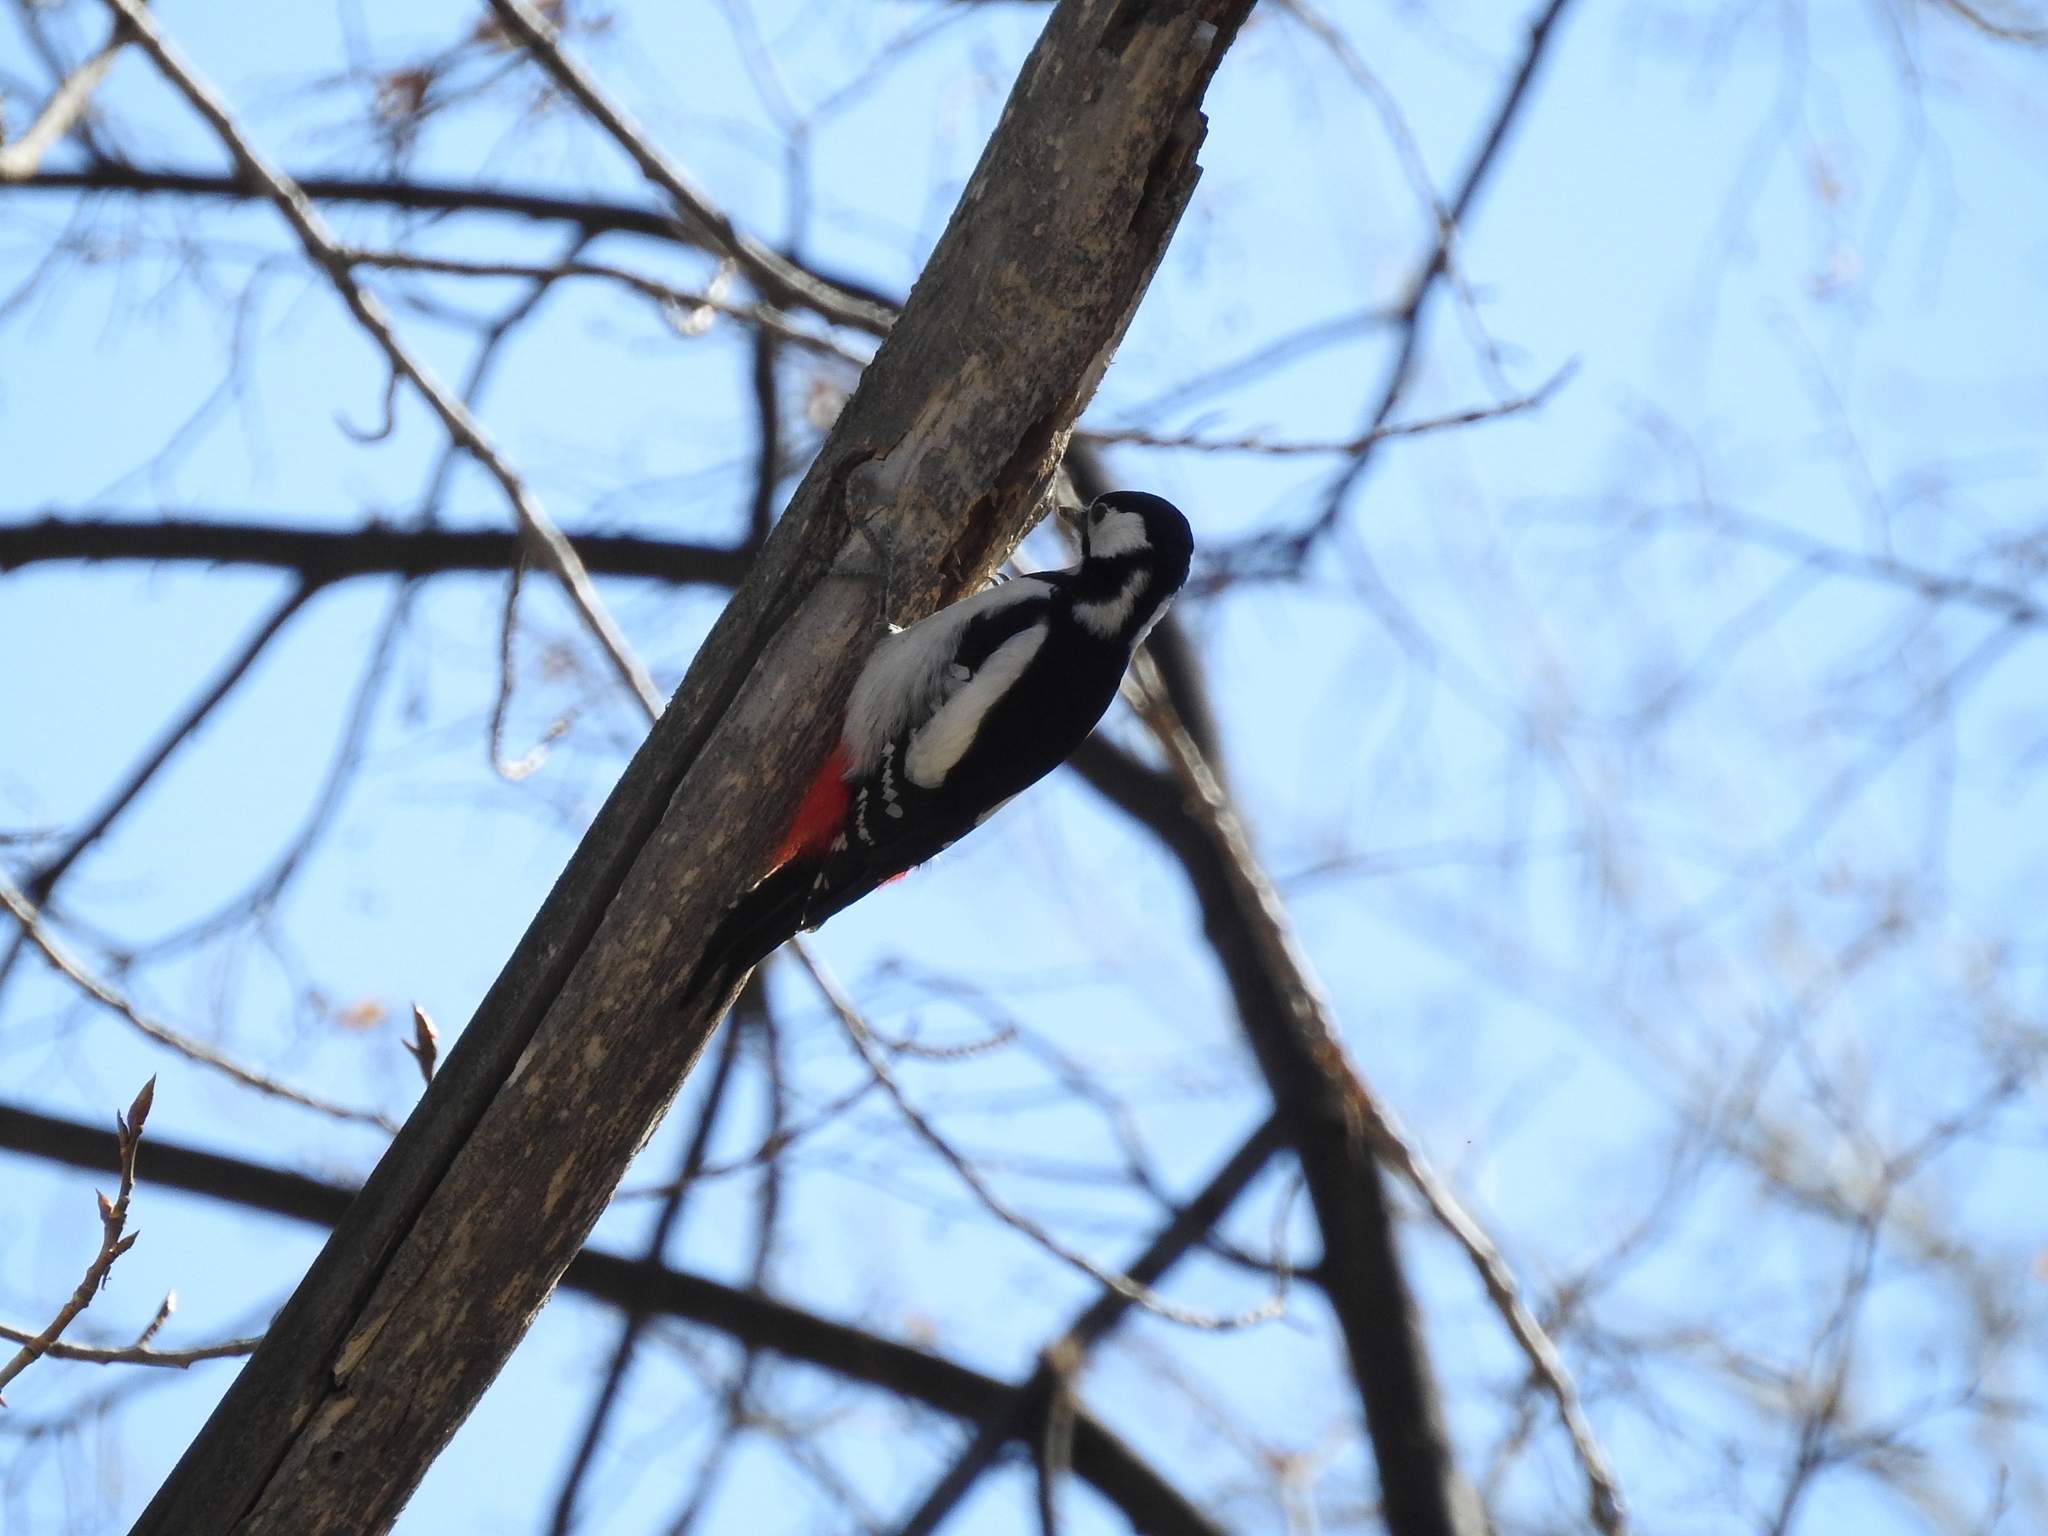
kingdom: Animalia
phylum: Chordata
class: Aves
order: Piciformes
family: Picidae
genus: Dendrocopos
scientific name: Dendrocopos major
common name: Great spotted woodpecker
